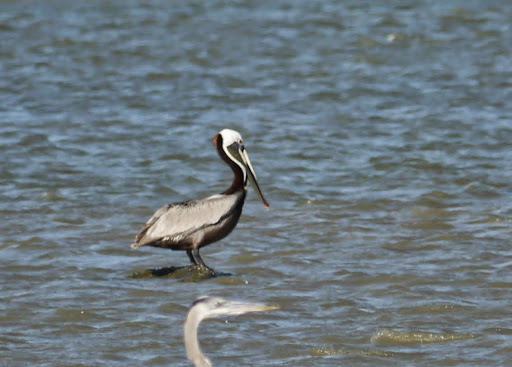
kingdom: Animalia
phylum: Chordata
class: Aves
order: Pelecaniformes
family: Pelecanidae
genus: Pelecanus
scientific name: Pelecanus occidentalis
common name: Brown pelican
